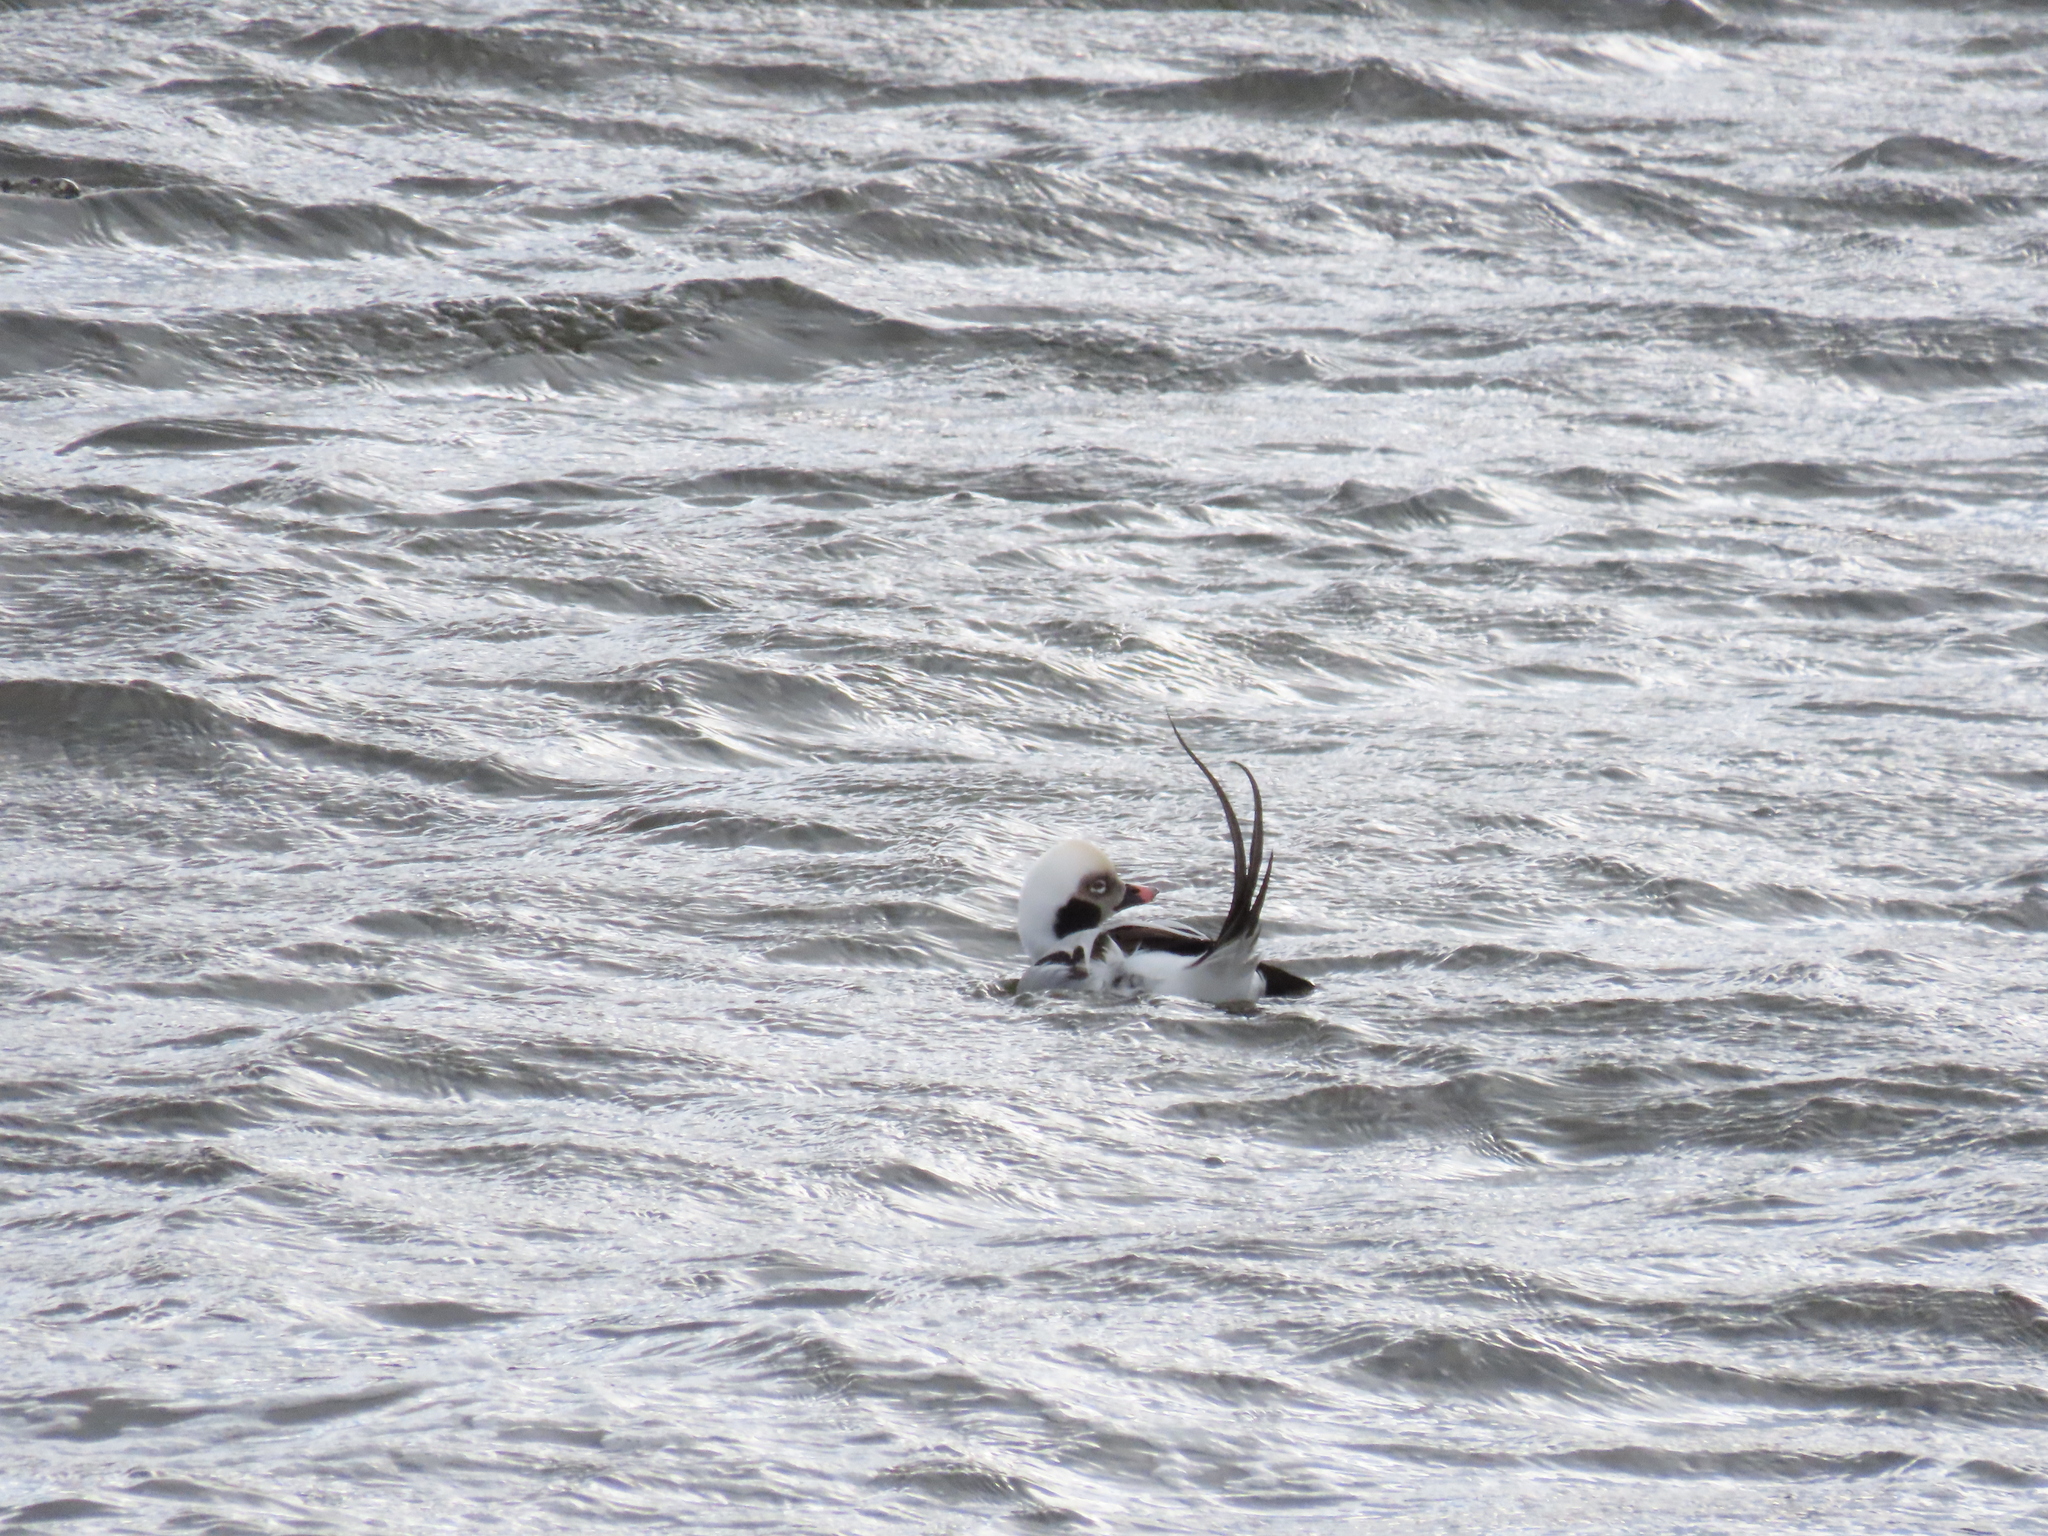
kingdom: Animalia
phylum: Chordata
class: Aves
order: Anseriformes
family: Anatidae
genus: Clangula
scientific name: Clangula hyemalis
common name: Long-tailed duck
